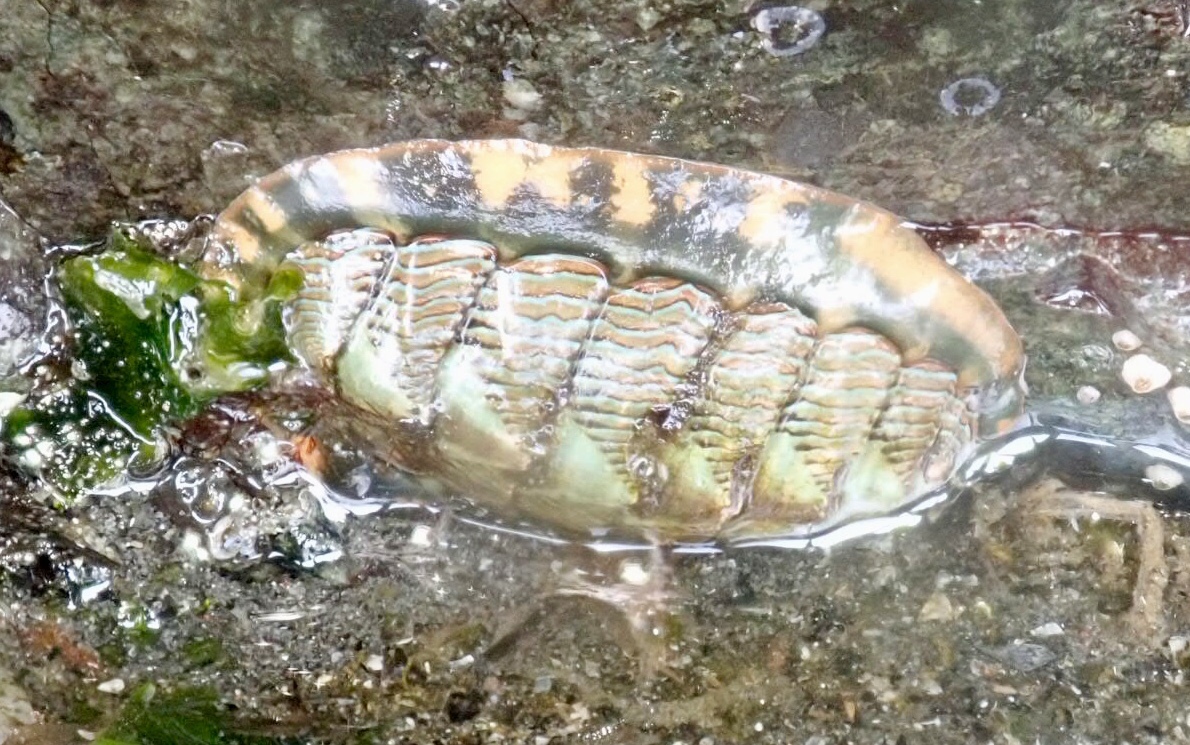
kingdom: Animalia
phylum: Mollusca
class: Polyplacophora
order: Chitonida
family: Tonicellidae
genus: Tonicella
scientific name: Tonicella lineata
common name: Lined chiton
